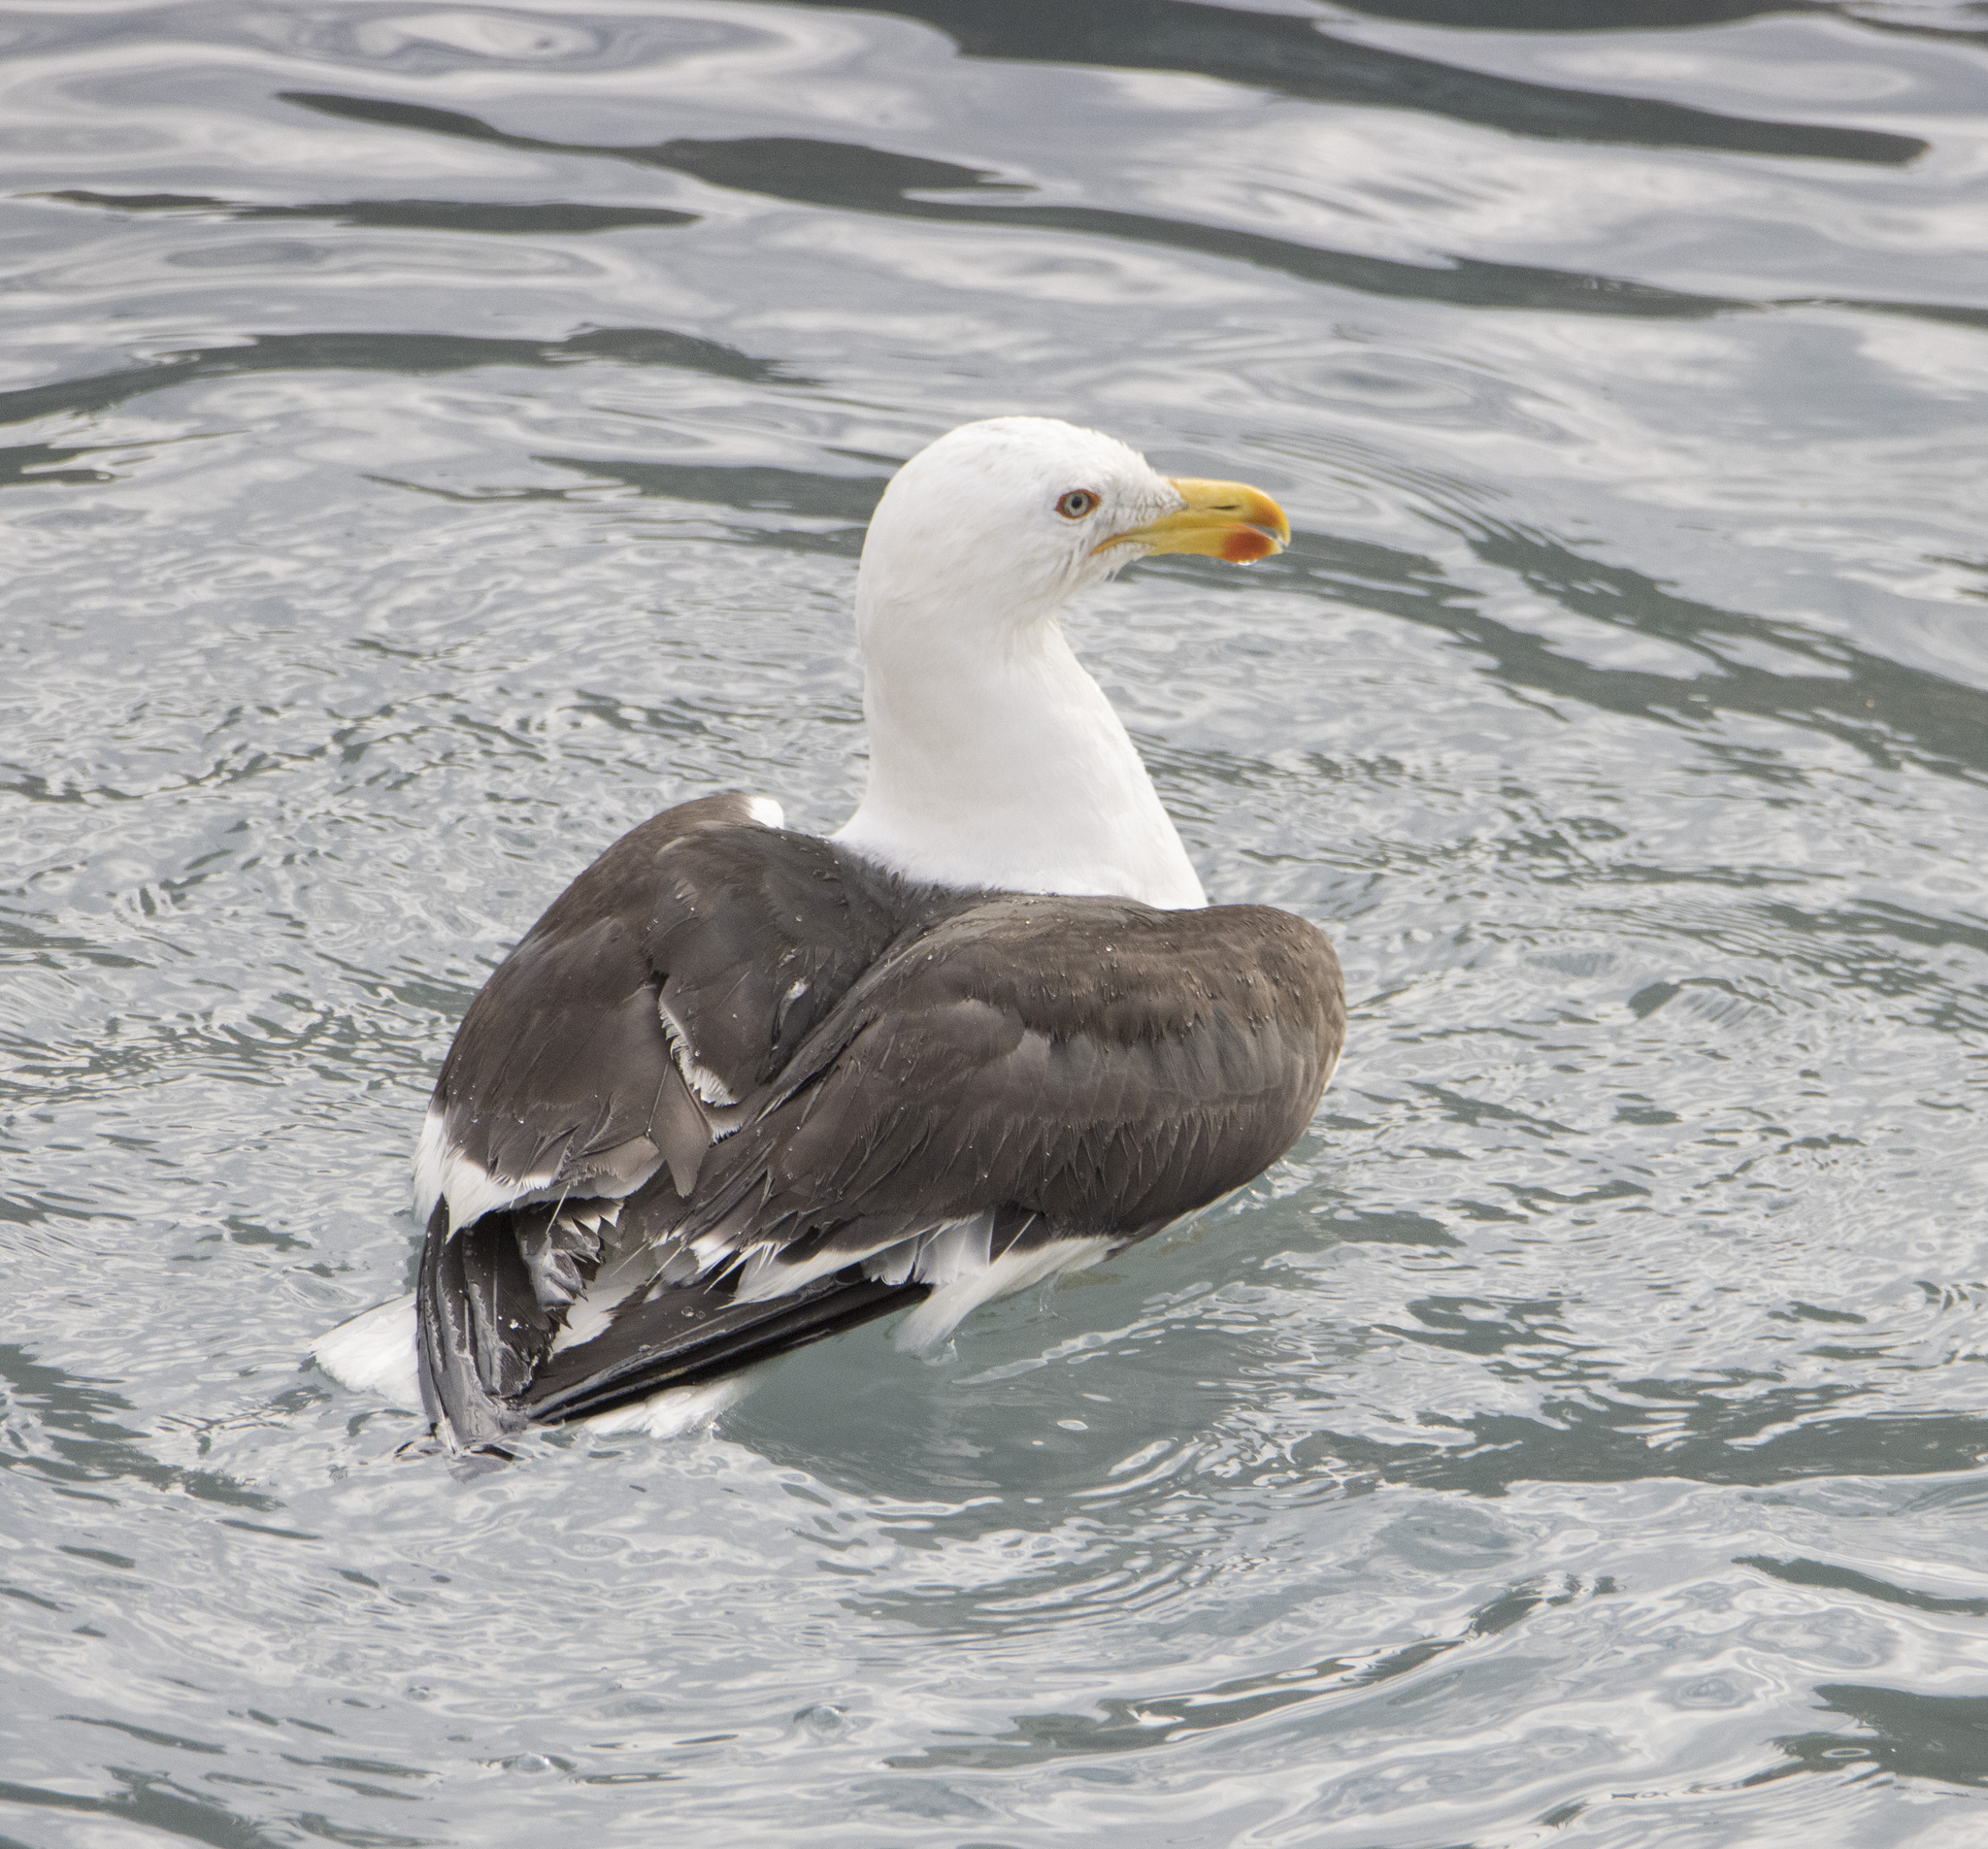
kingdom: Animalia
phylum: Chordata
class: Aves
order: Charadriiformes
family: Laridae
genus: Larus
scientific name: Larus dominicanus
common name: Kelp gull
